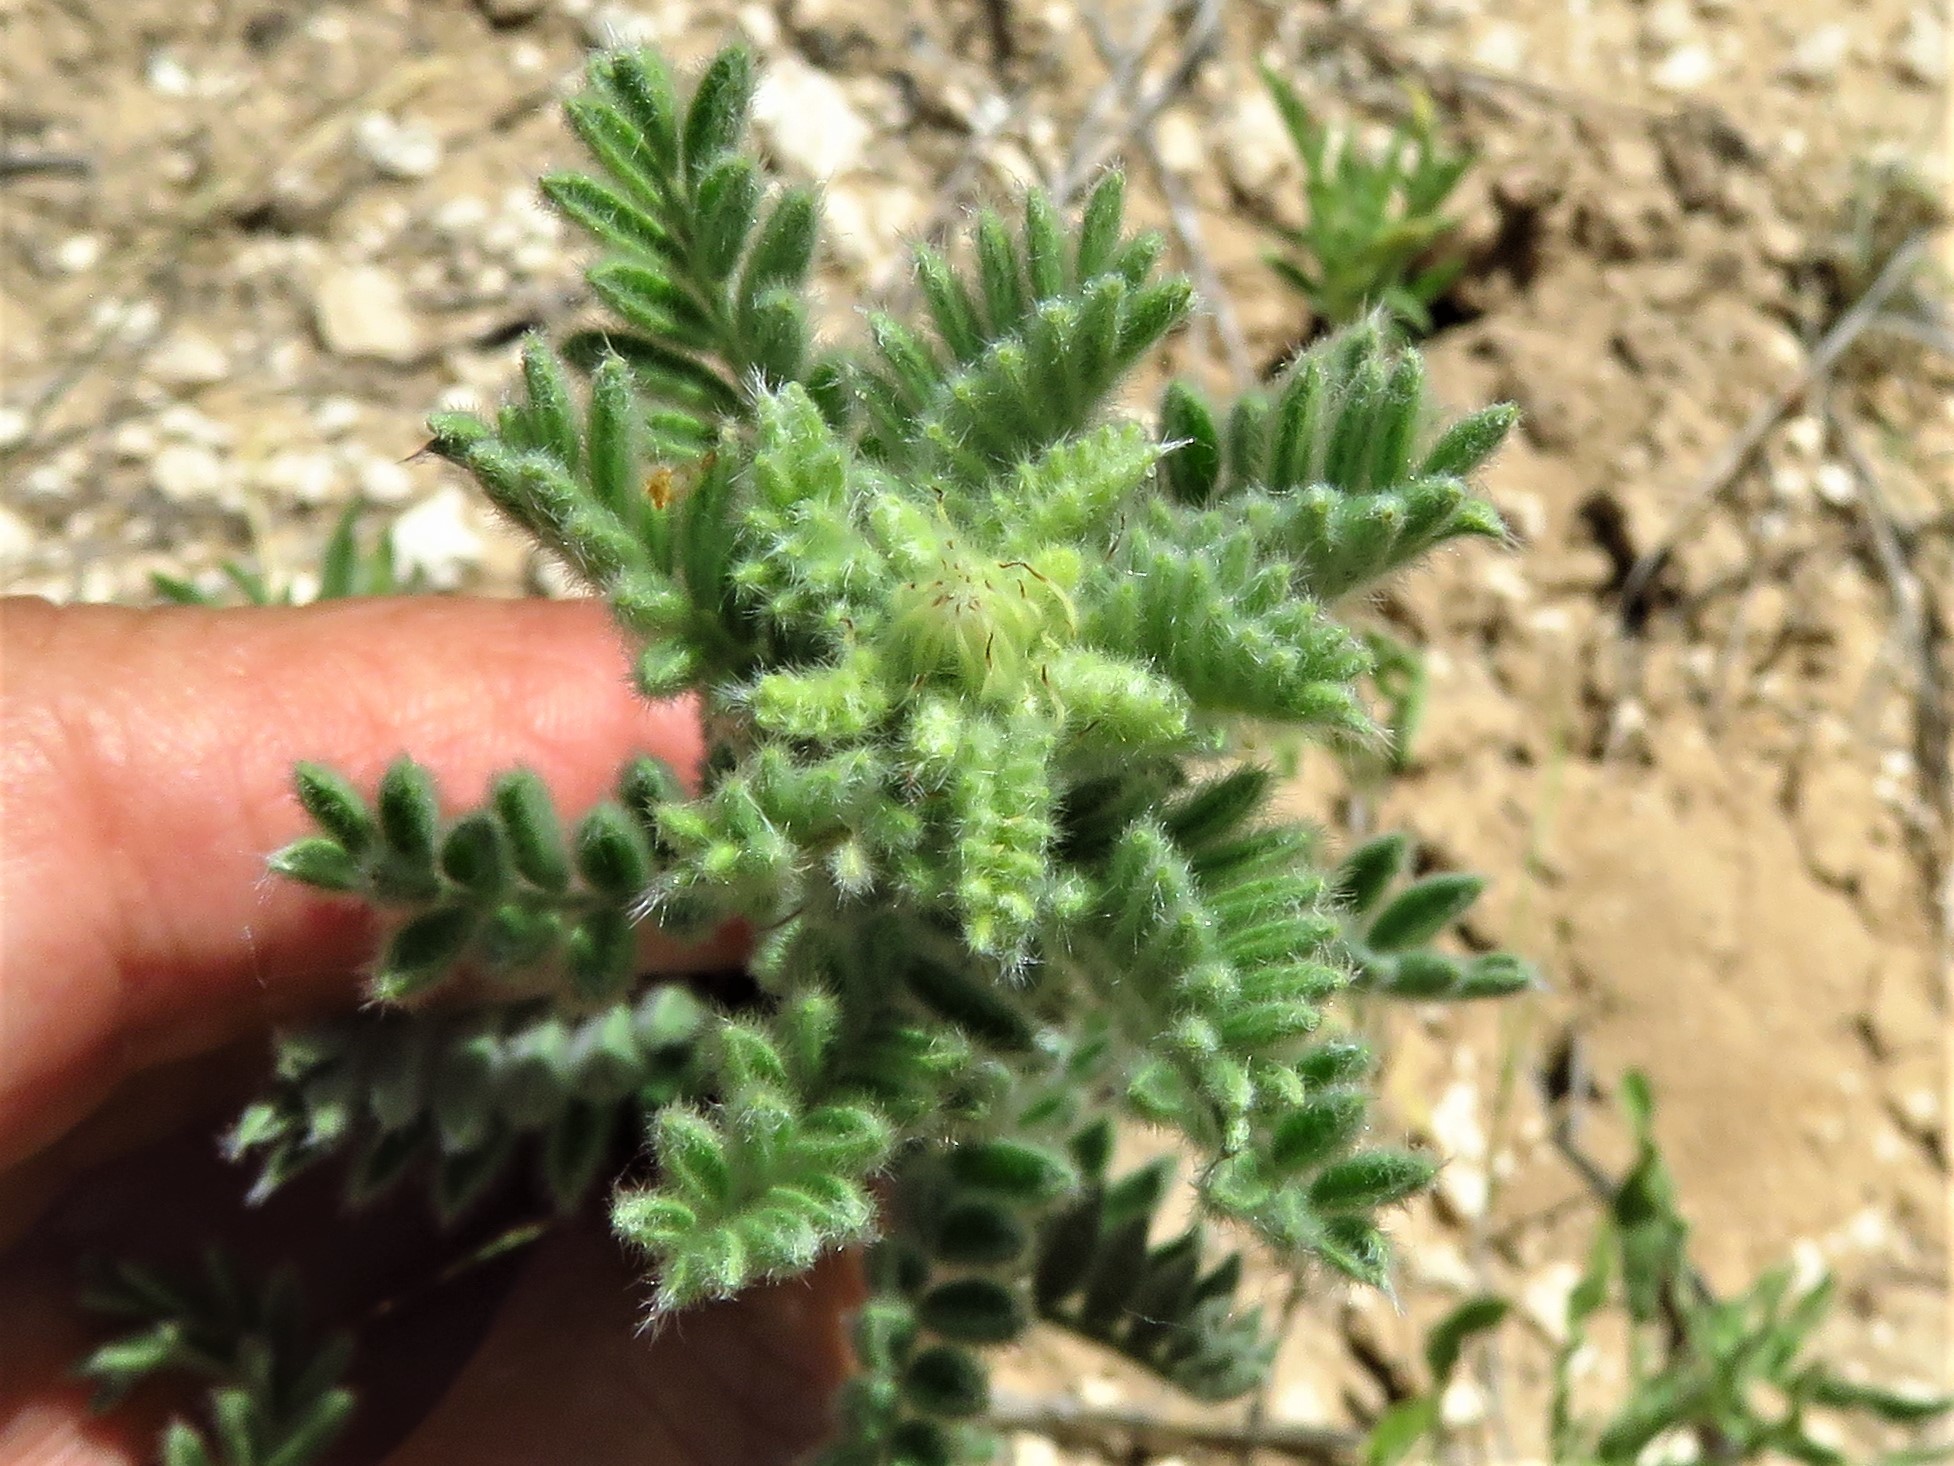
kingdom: Plantae
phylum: Tracheophyta
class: Magnoliopsida
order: Fabales
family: Fabaceae
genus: Dalea
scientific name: Dalea villosa
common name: Silky prairie-clover
